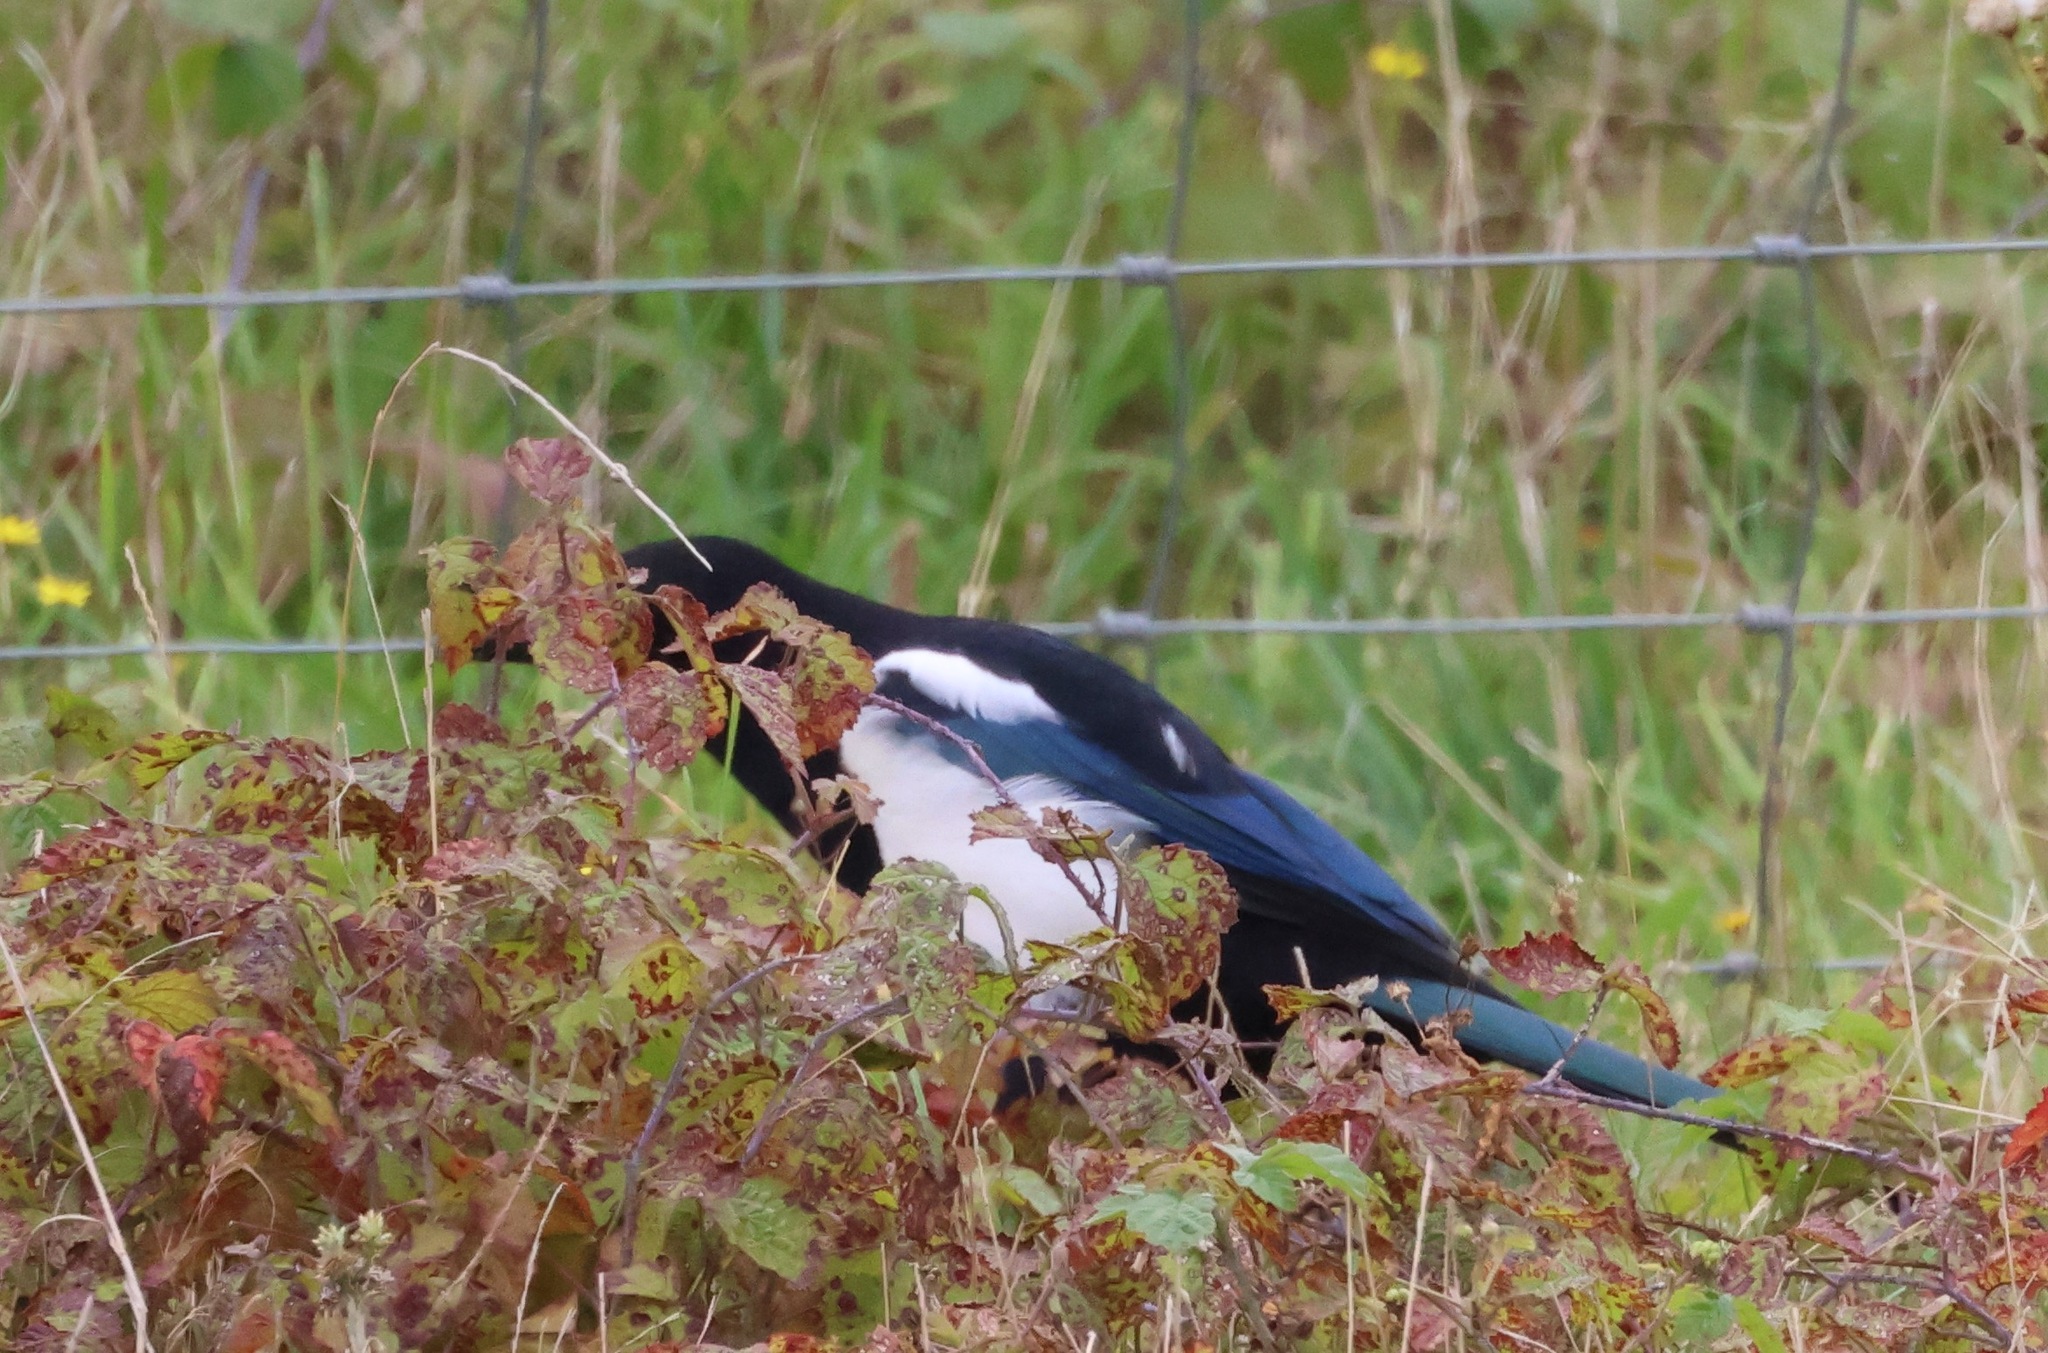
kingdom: Animalia
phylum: Chordata
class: Aves
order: Passeriformes
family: Corvidae
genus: Pica
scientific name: Pica pica
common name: Eurasian magpie
